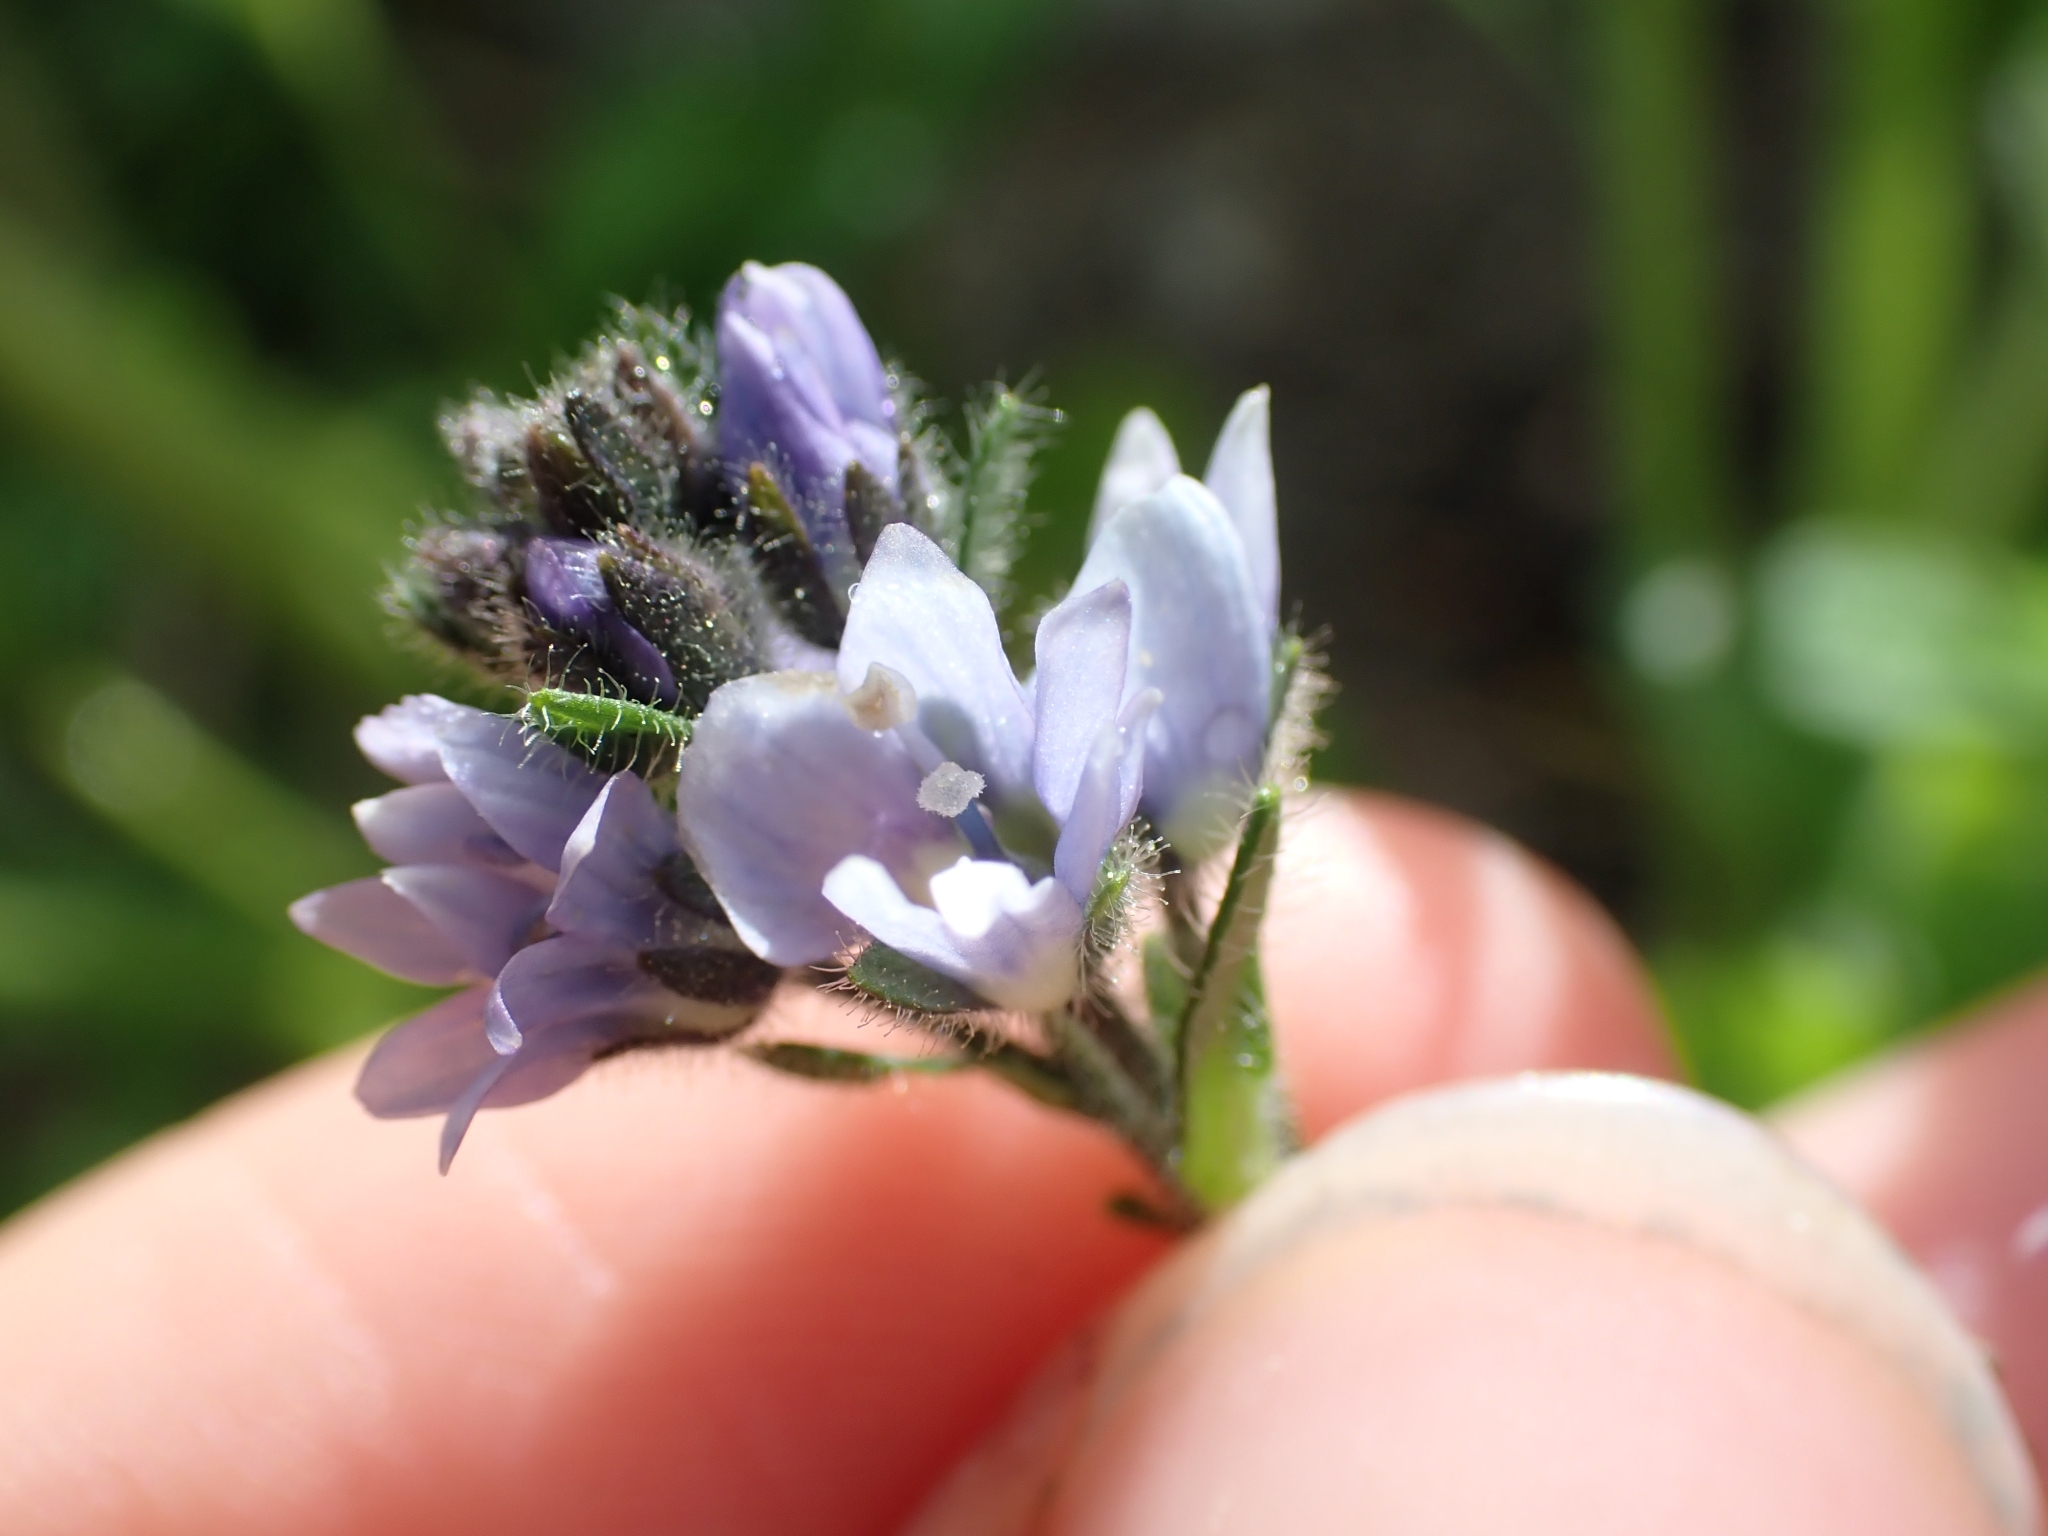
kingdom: Plantae
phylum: Tracheophyta
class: Magnoliopsida
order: Lamiales
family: Plantaginaceae
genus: Veronica
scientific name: Veronica wormskjoldii
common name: American alpine speedwell
